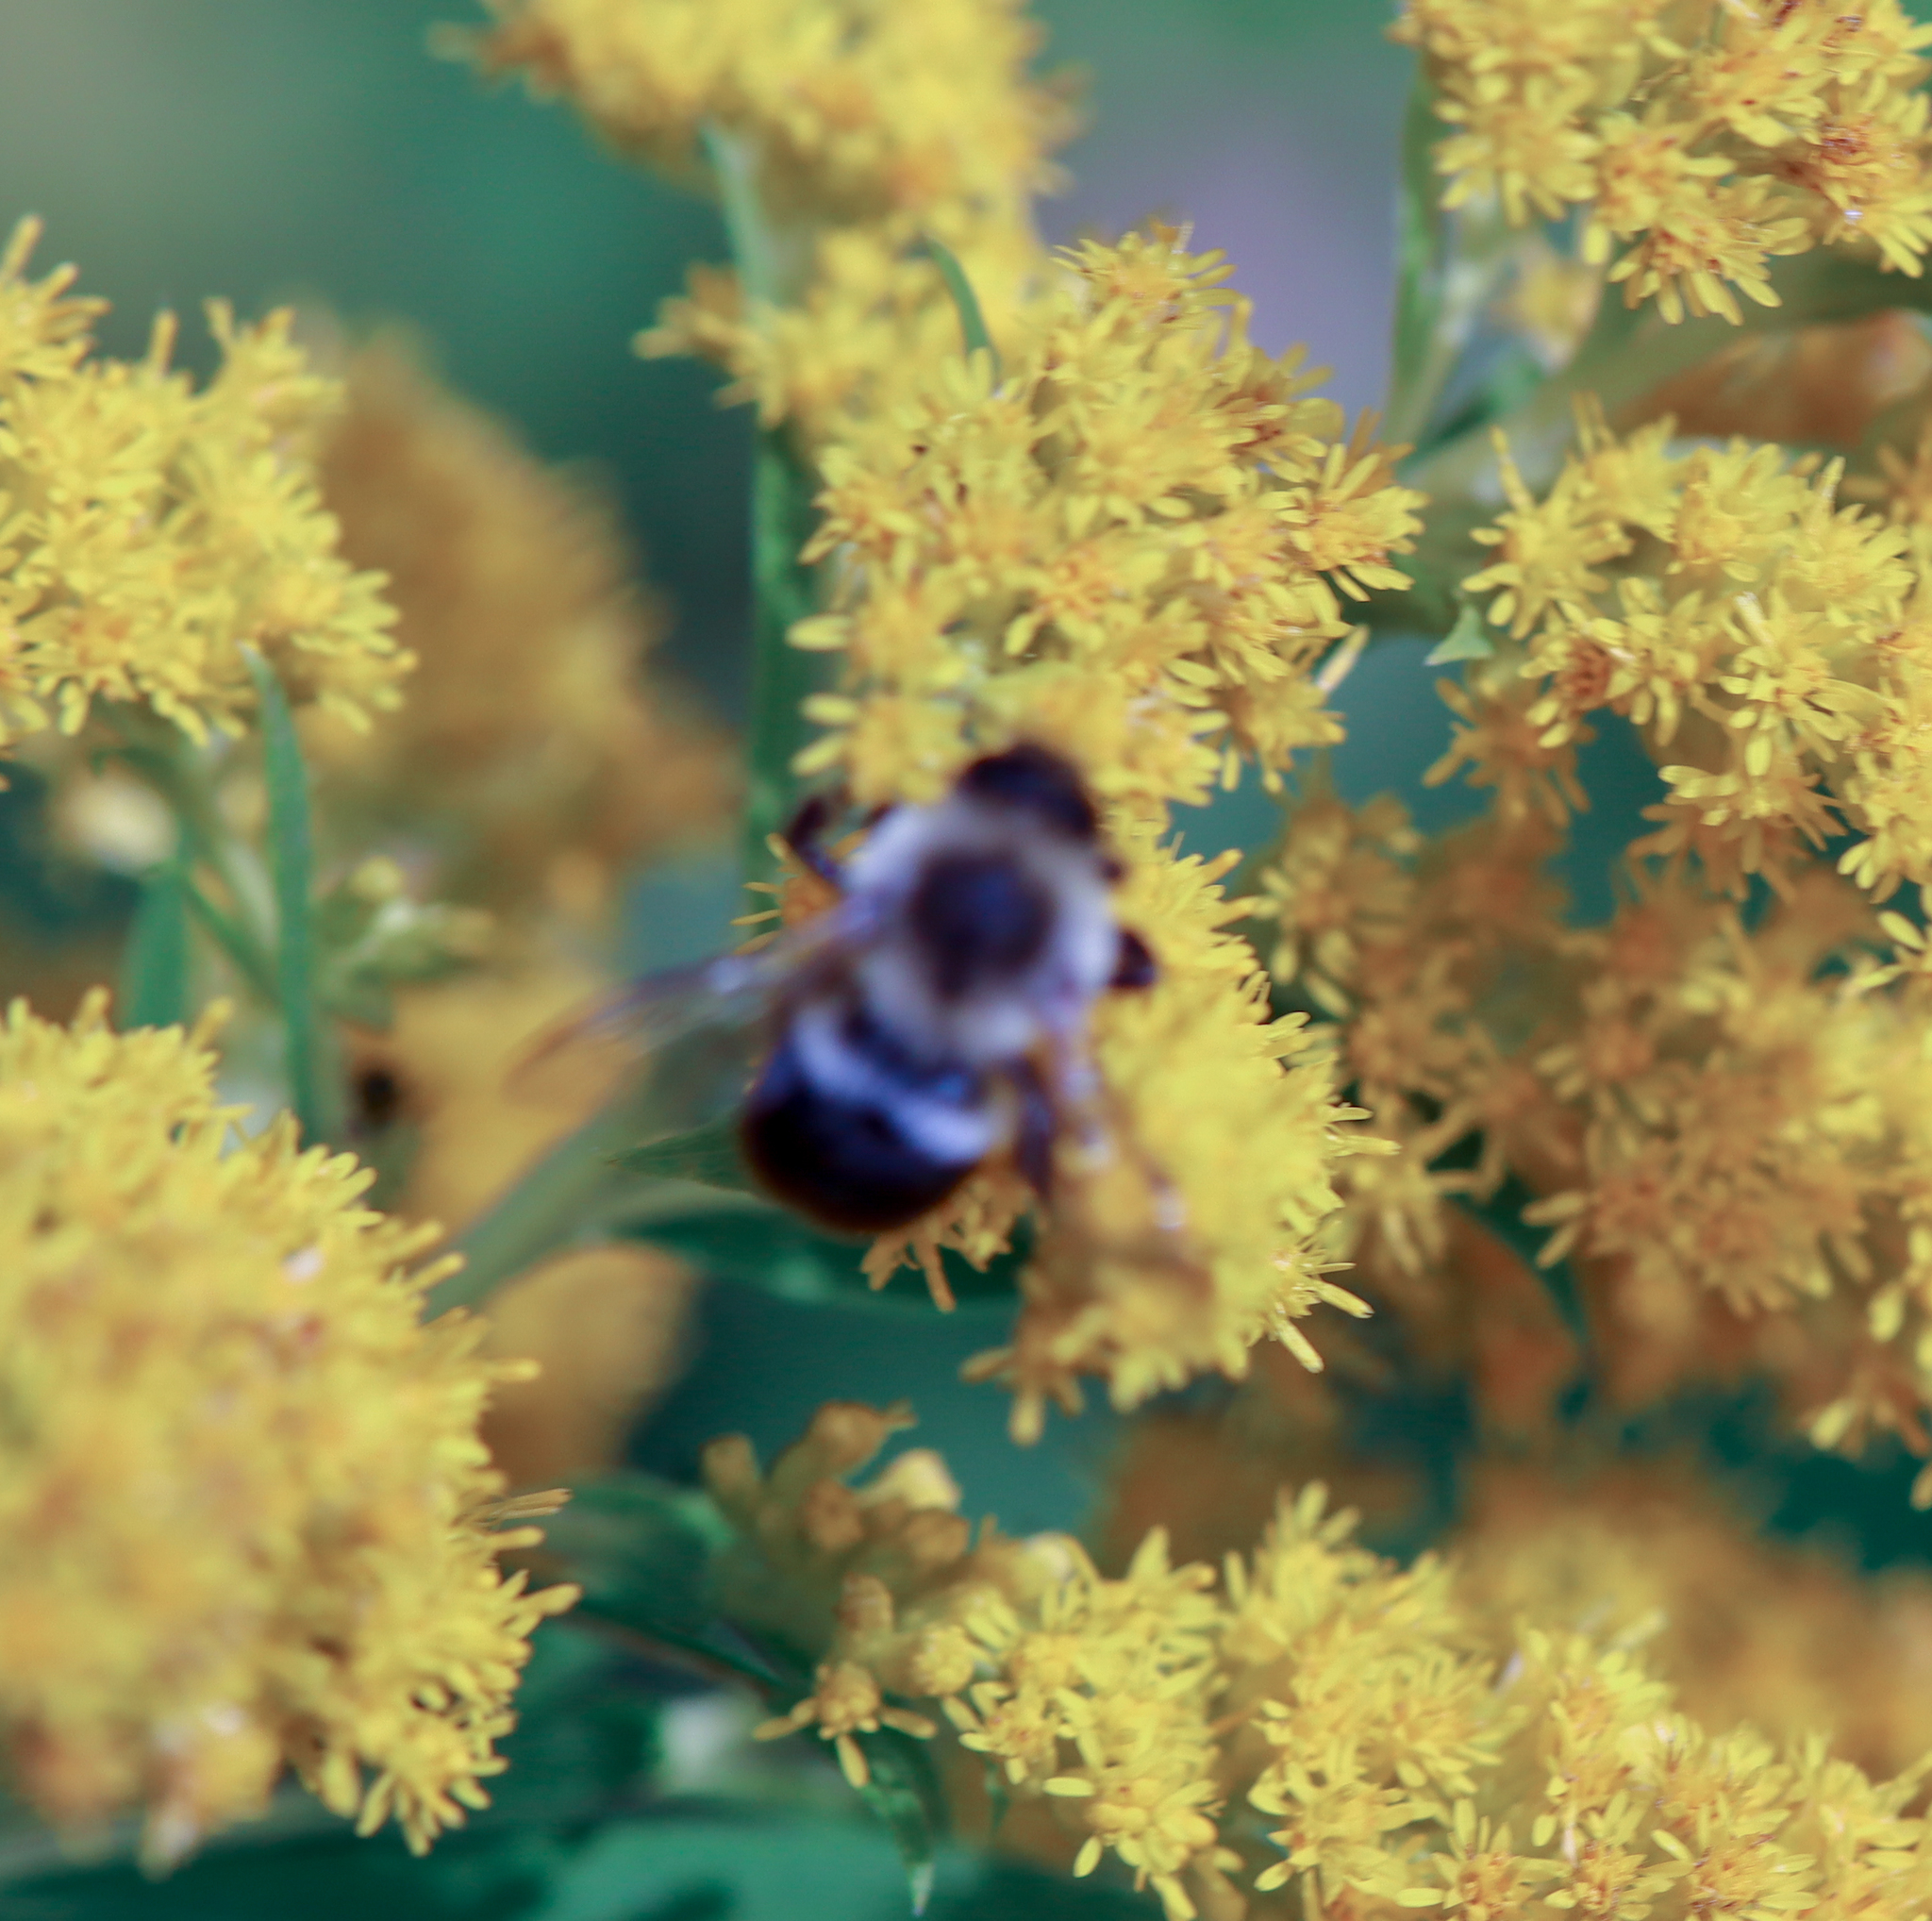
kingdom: Animalia
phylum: Arthropoda
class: Insecta
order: Hymenoptera
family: Apidae
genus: Bombus
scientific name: Bombus impatiens
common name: Common eastern bumble bee
